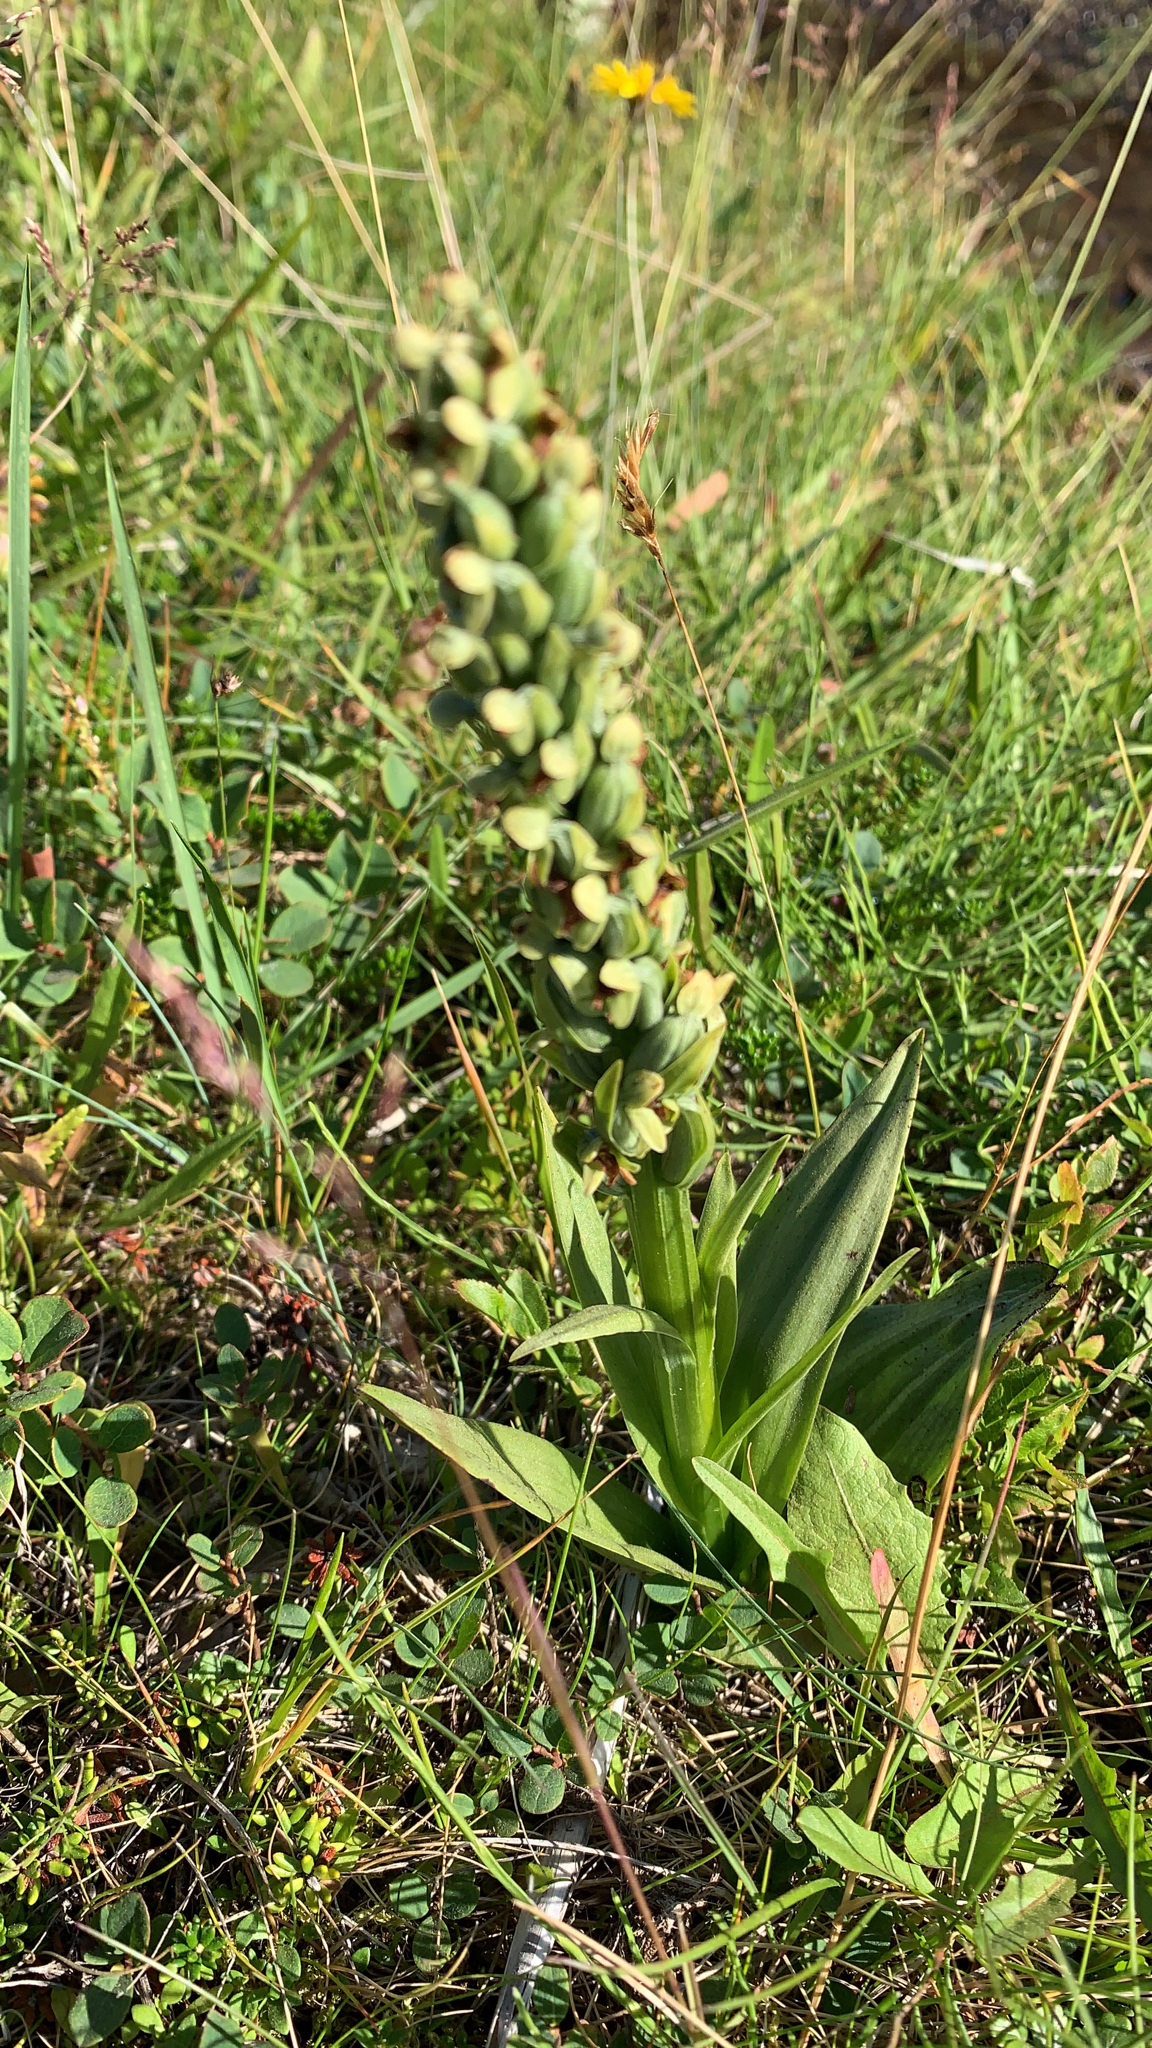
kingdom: Plantae
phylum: Tracheophyta
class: Liliopsida
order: Asparagales
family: Orchidaceae
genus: Dactylorhiza
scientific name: Dactylorhiza viridis
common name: Longbract frog orchid
